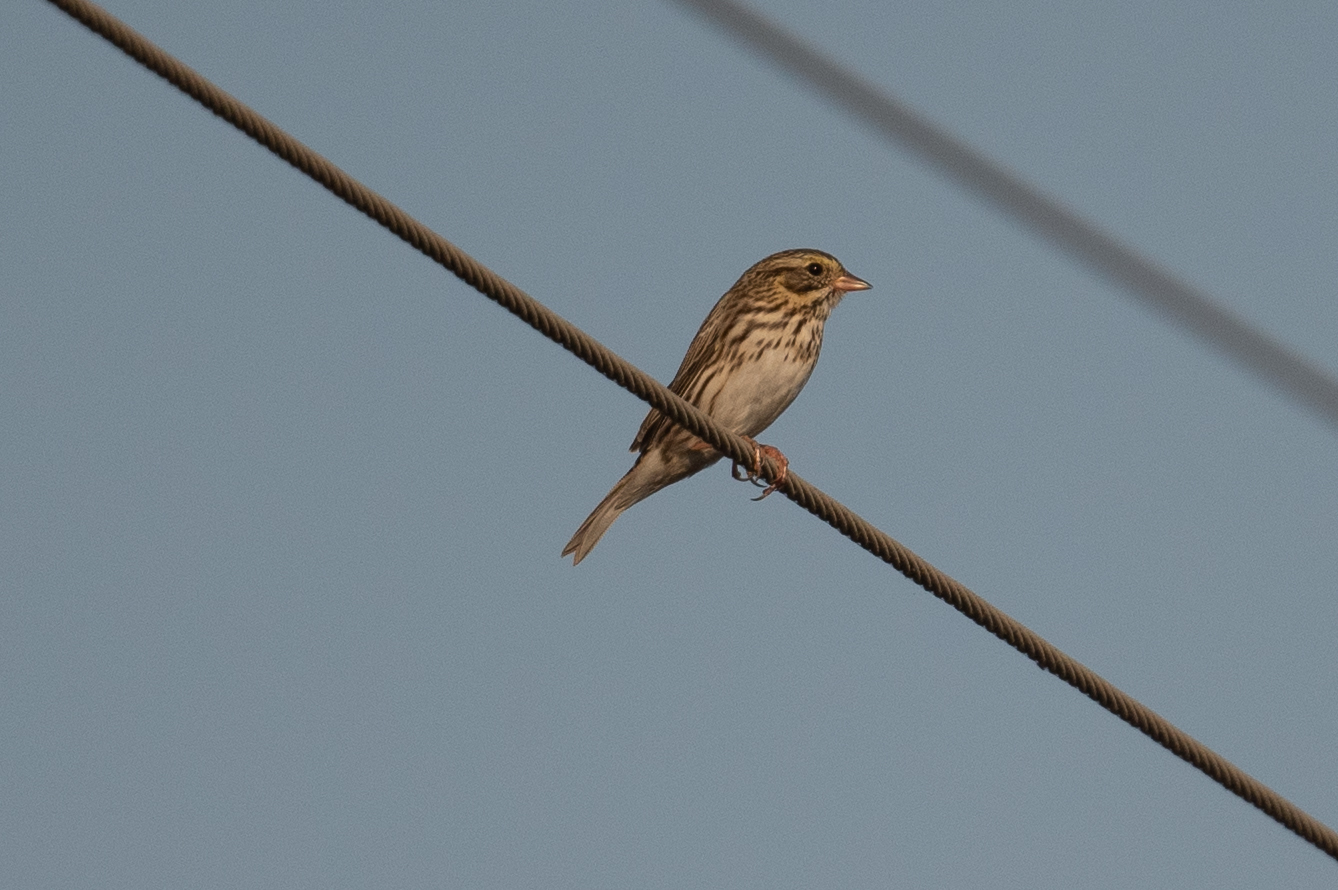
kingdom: Animalia
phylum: Chordata
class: Aves
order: Passeriformes
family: Passerellidae
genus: Passerculus
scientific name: Passerculus sandwichensis
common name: Savannah sparrow
